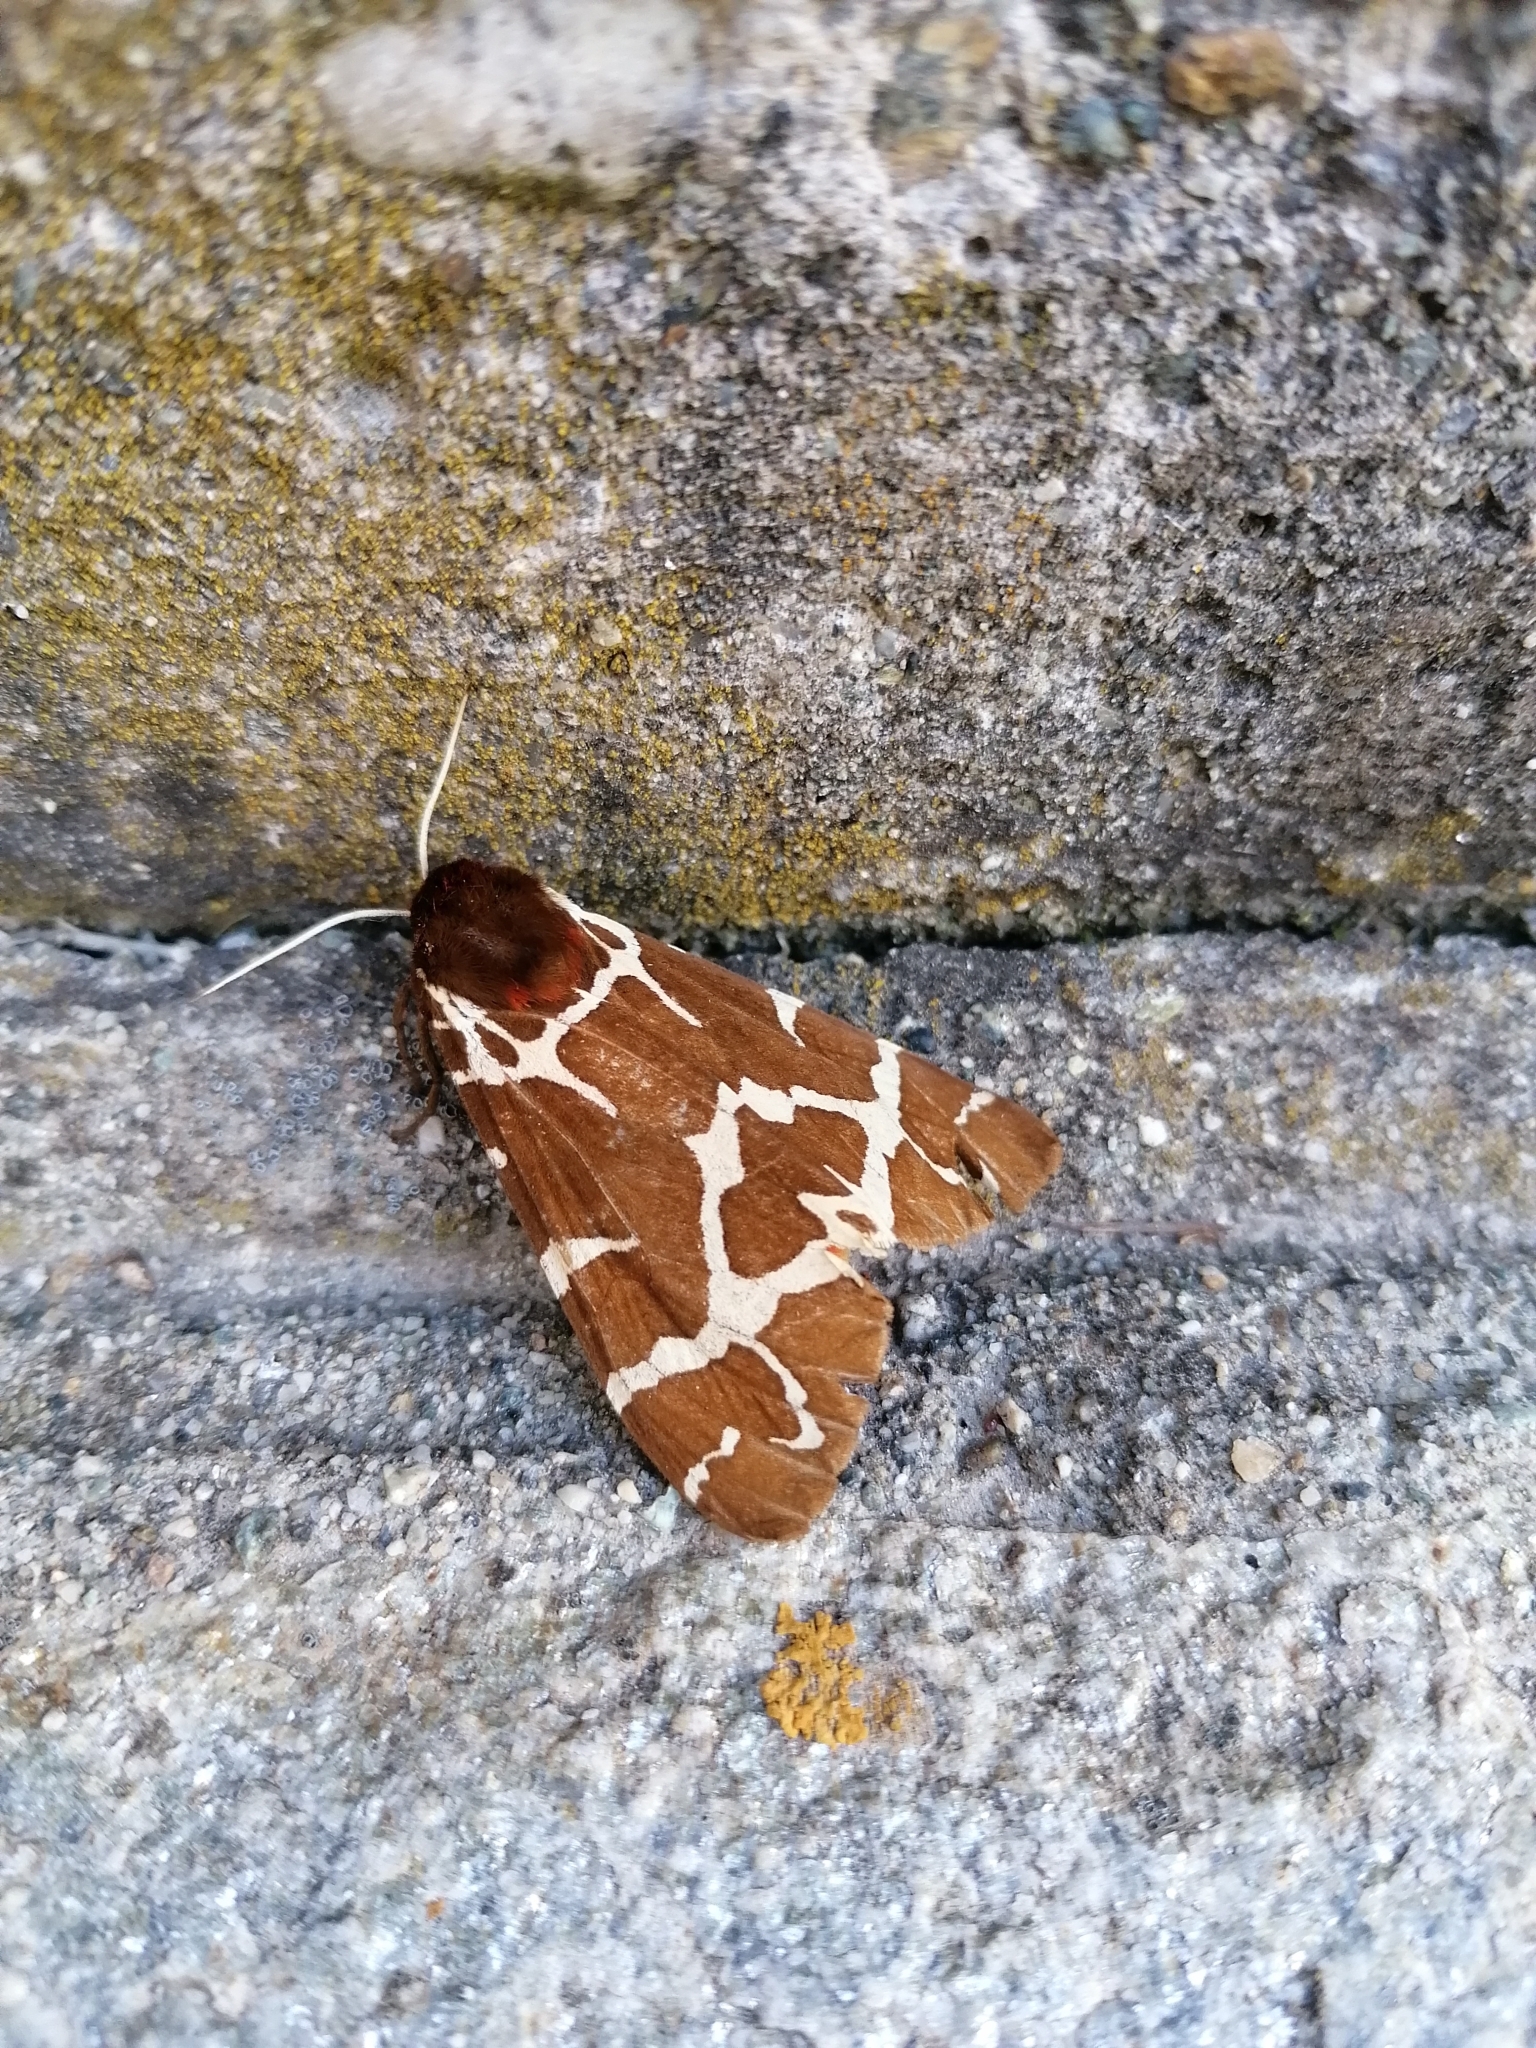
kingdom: Animalia
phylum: Arthropoda
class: Insecta
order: Lepidoptera
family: Erebidae
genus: Arctia
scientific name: Arctia caja
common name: Garden tiger
